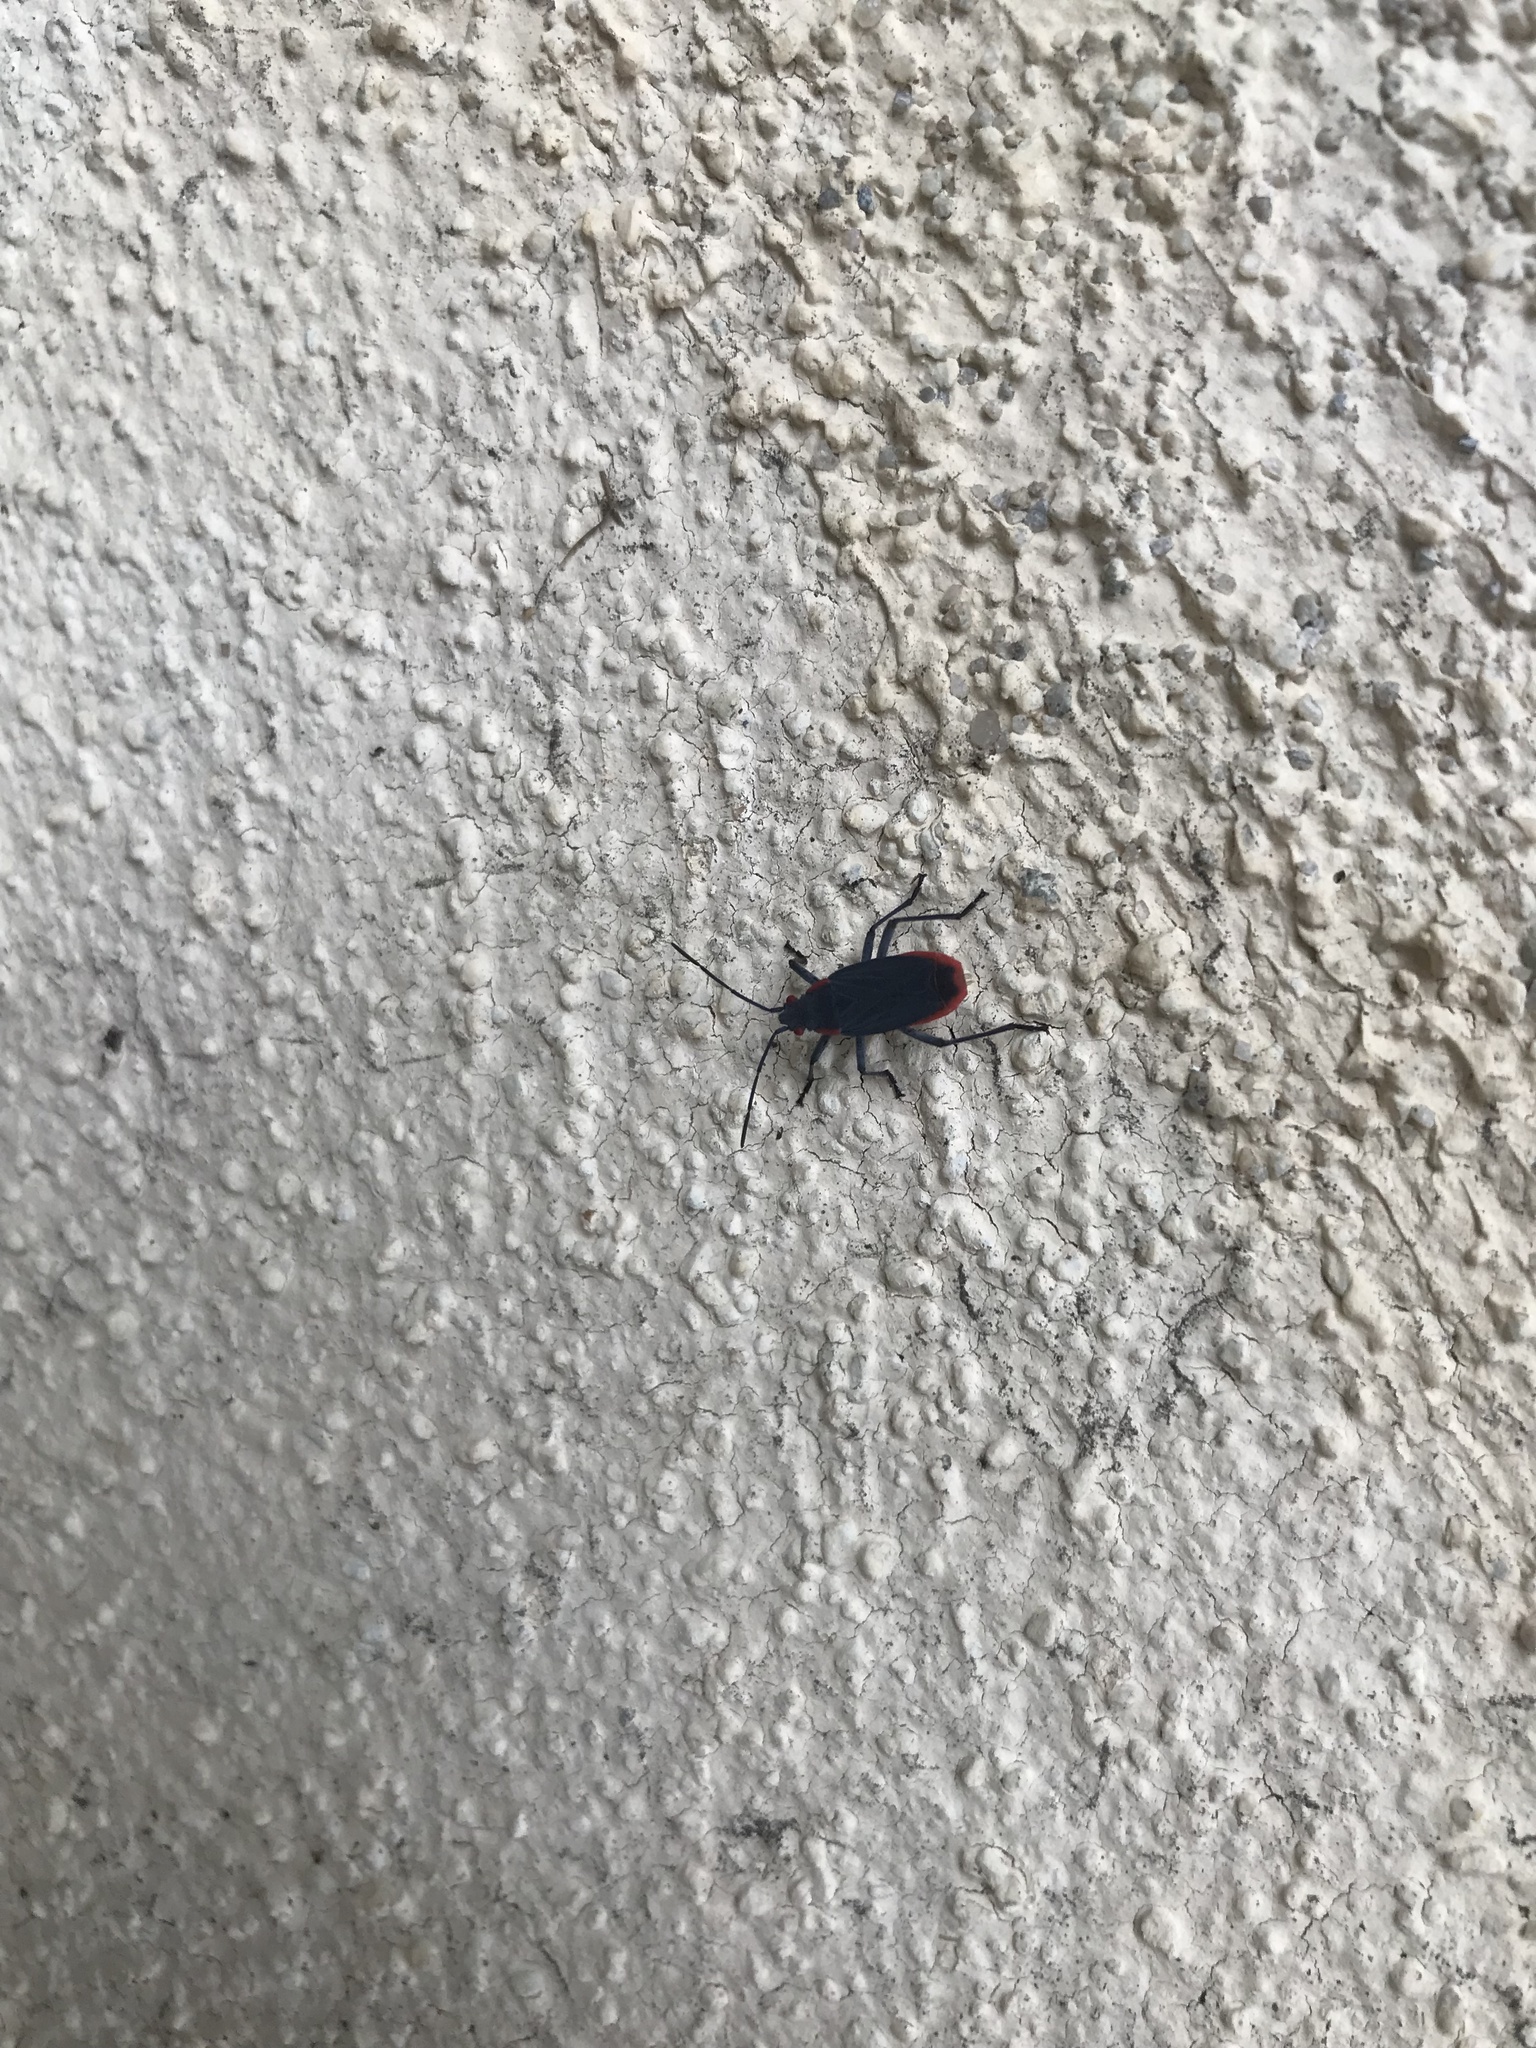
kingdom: Animalia
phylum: Arthropoda
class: Insecta
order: Hemiptera
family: Rhopalidae
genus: Jadera
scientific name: Jadera haematoloma
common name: Red-shouldered bug
